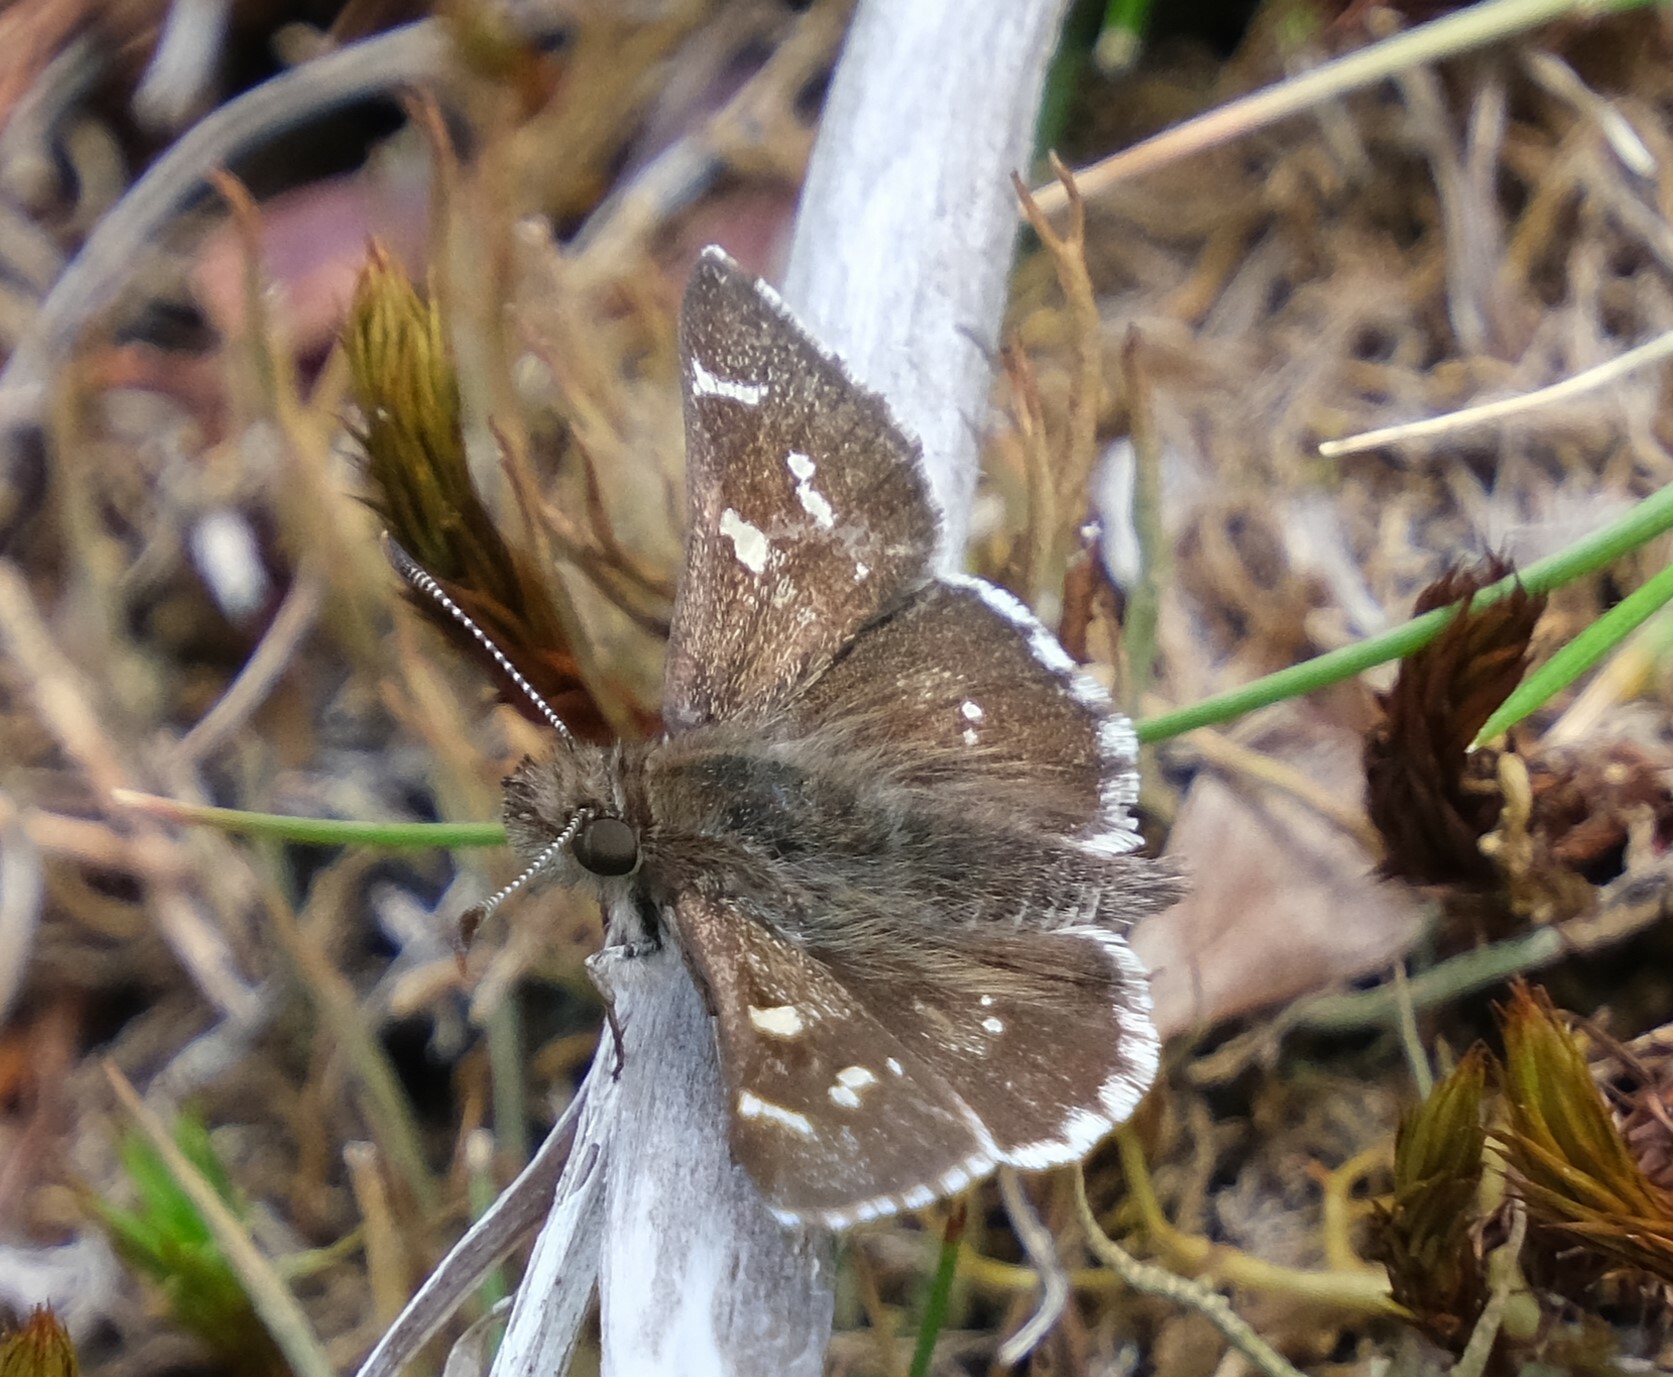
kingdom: Animalia
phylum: Arthropoda
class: Insecta
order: Lepidoptera
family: Hesperiidae
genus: Pasma
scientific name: Pasma tasmanicus
